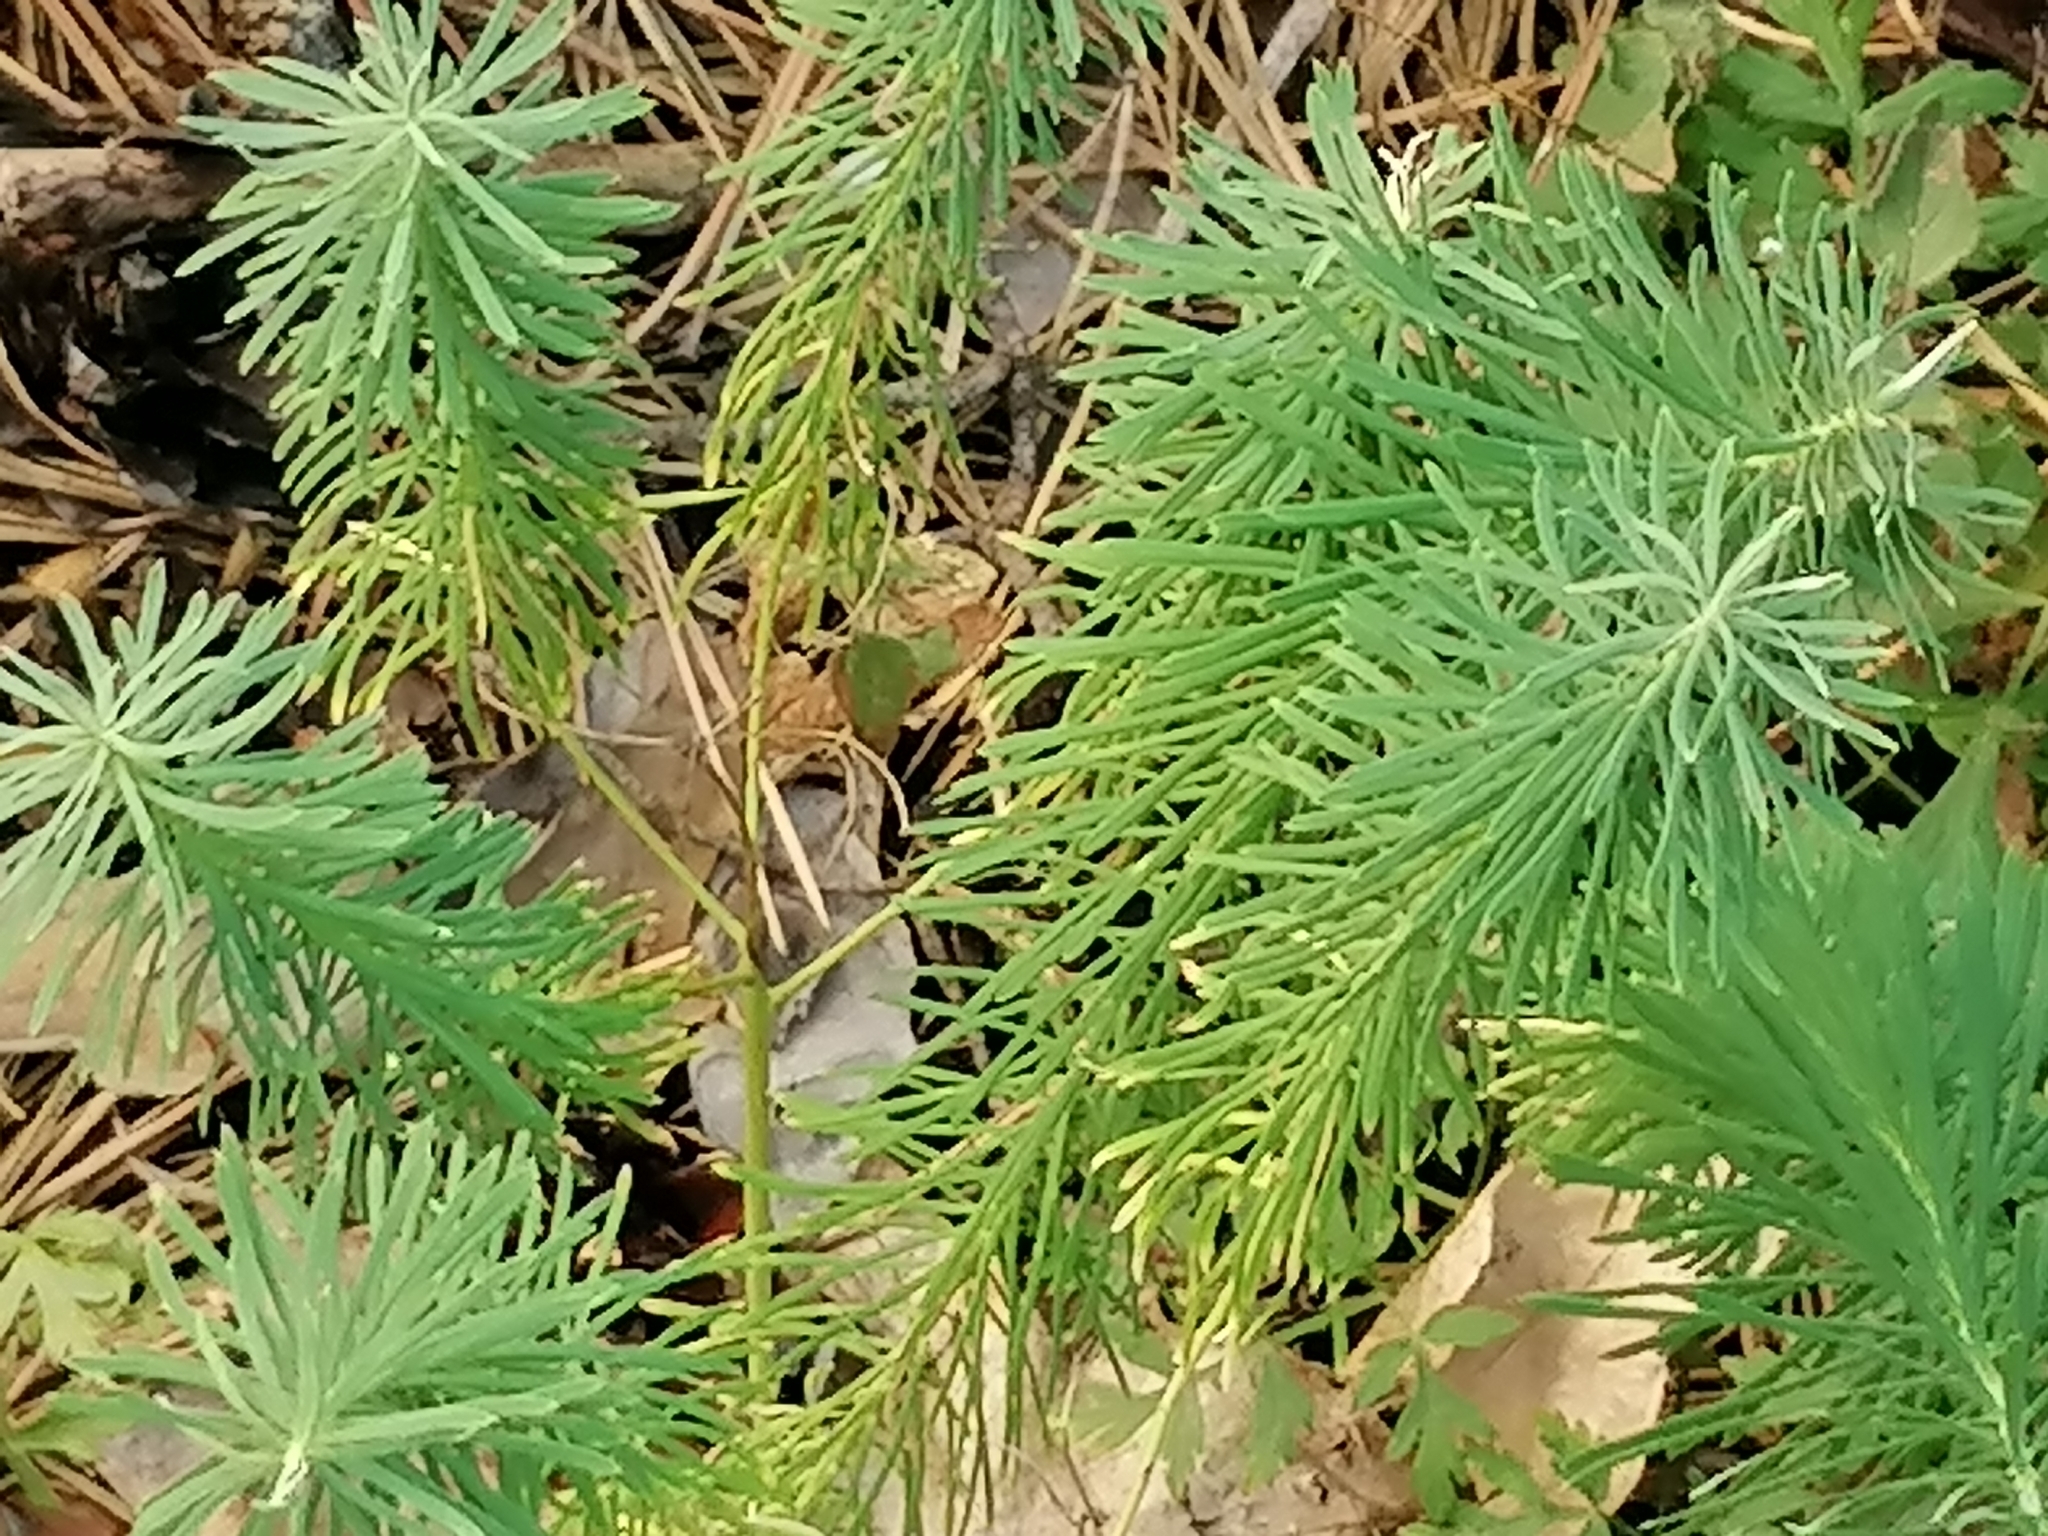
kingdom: Plantae
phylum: Tracheophyta
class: Magnoliopsida
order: Malpighiales
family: Euphorbiaceae
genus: Euphorbia
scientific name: Euphorbia cyparissias
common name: Cypress spurge
